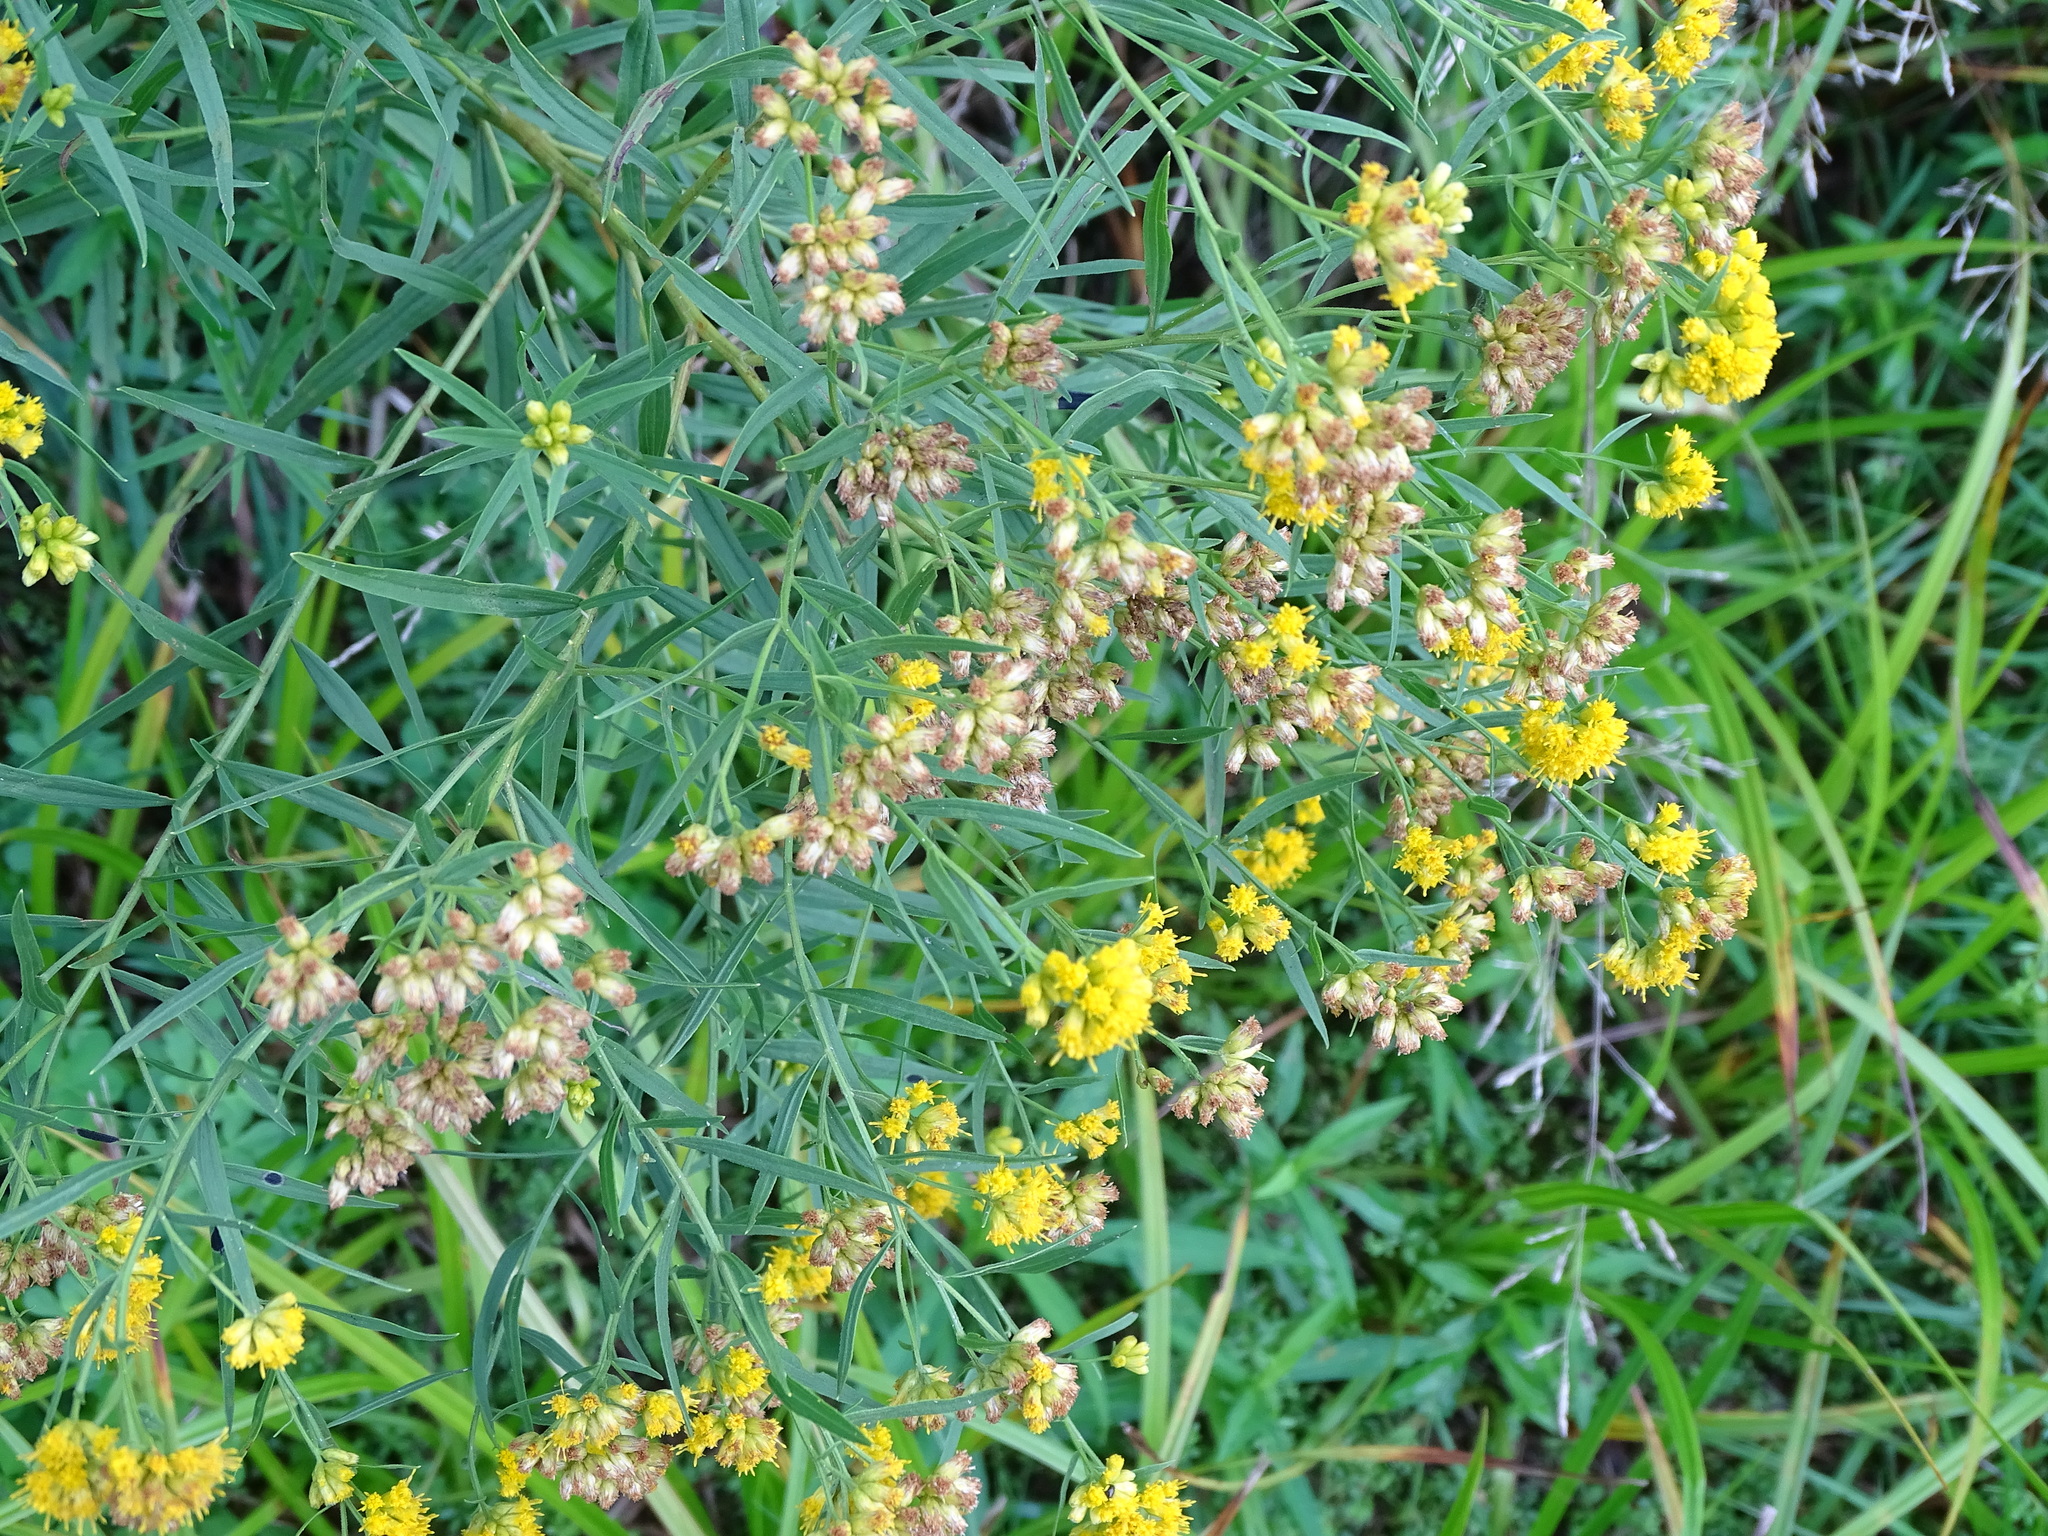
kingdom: Plantae
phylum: Tracheophyta
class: Magnoliopsida
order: Asterales
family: Asteraceae
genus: Euthamia
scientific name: Euthamia graminifolia
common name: Common goldentop
